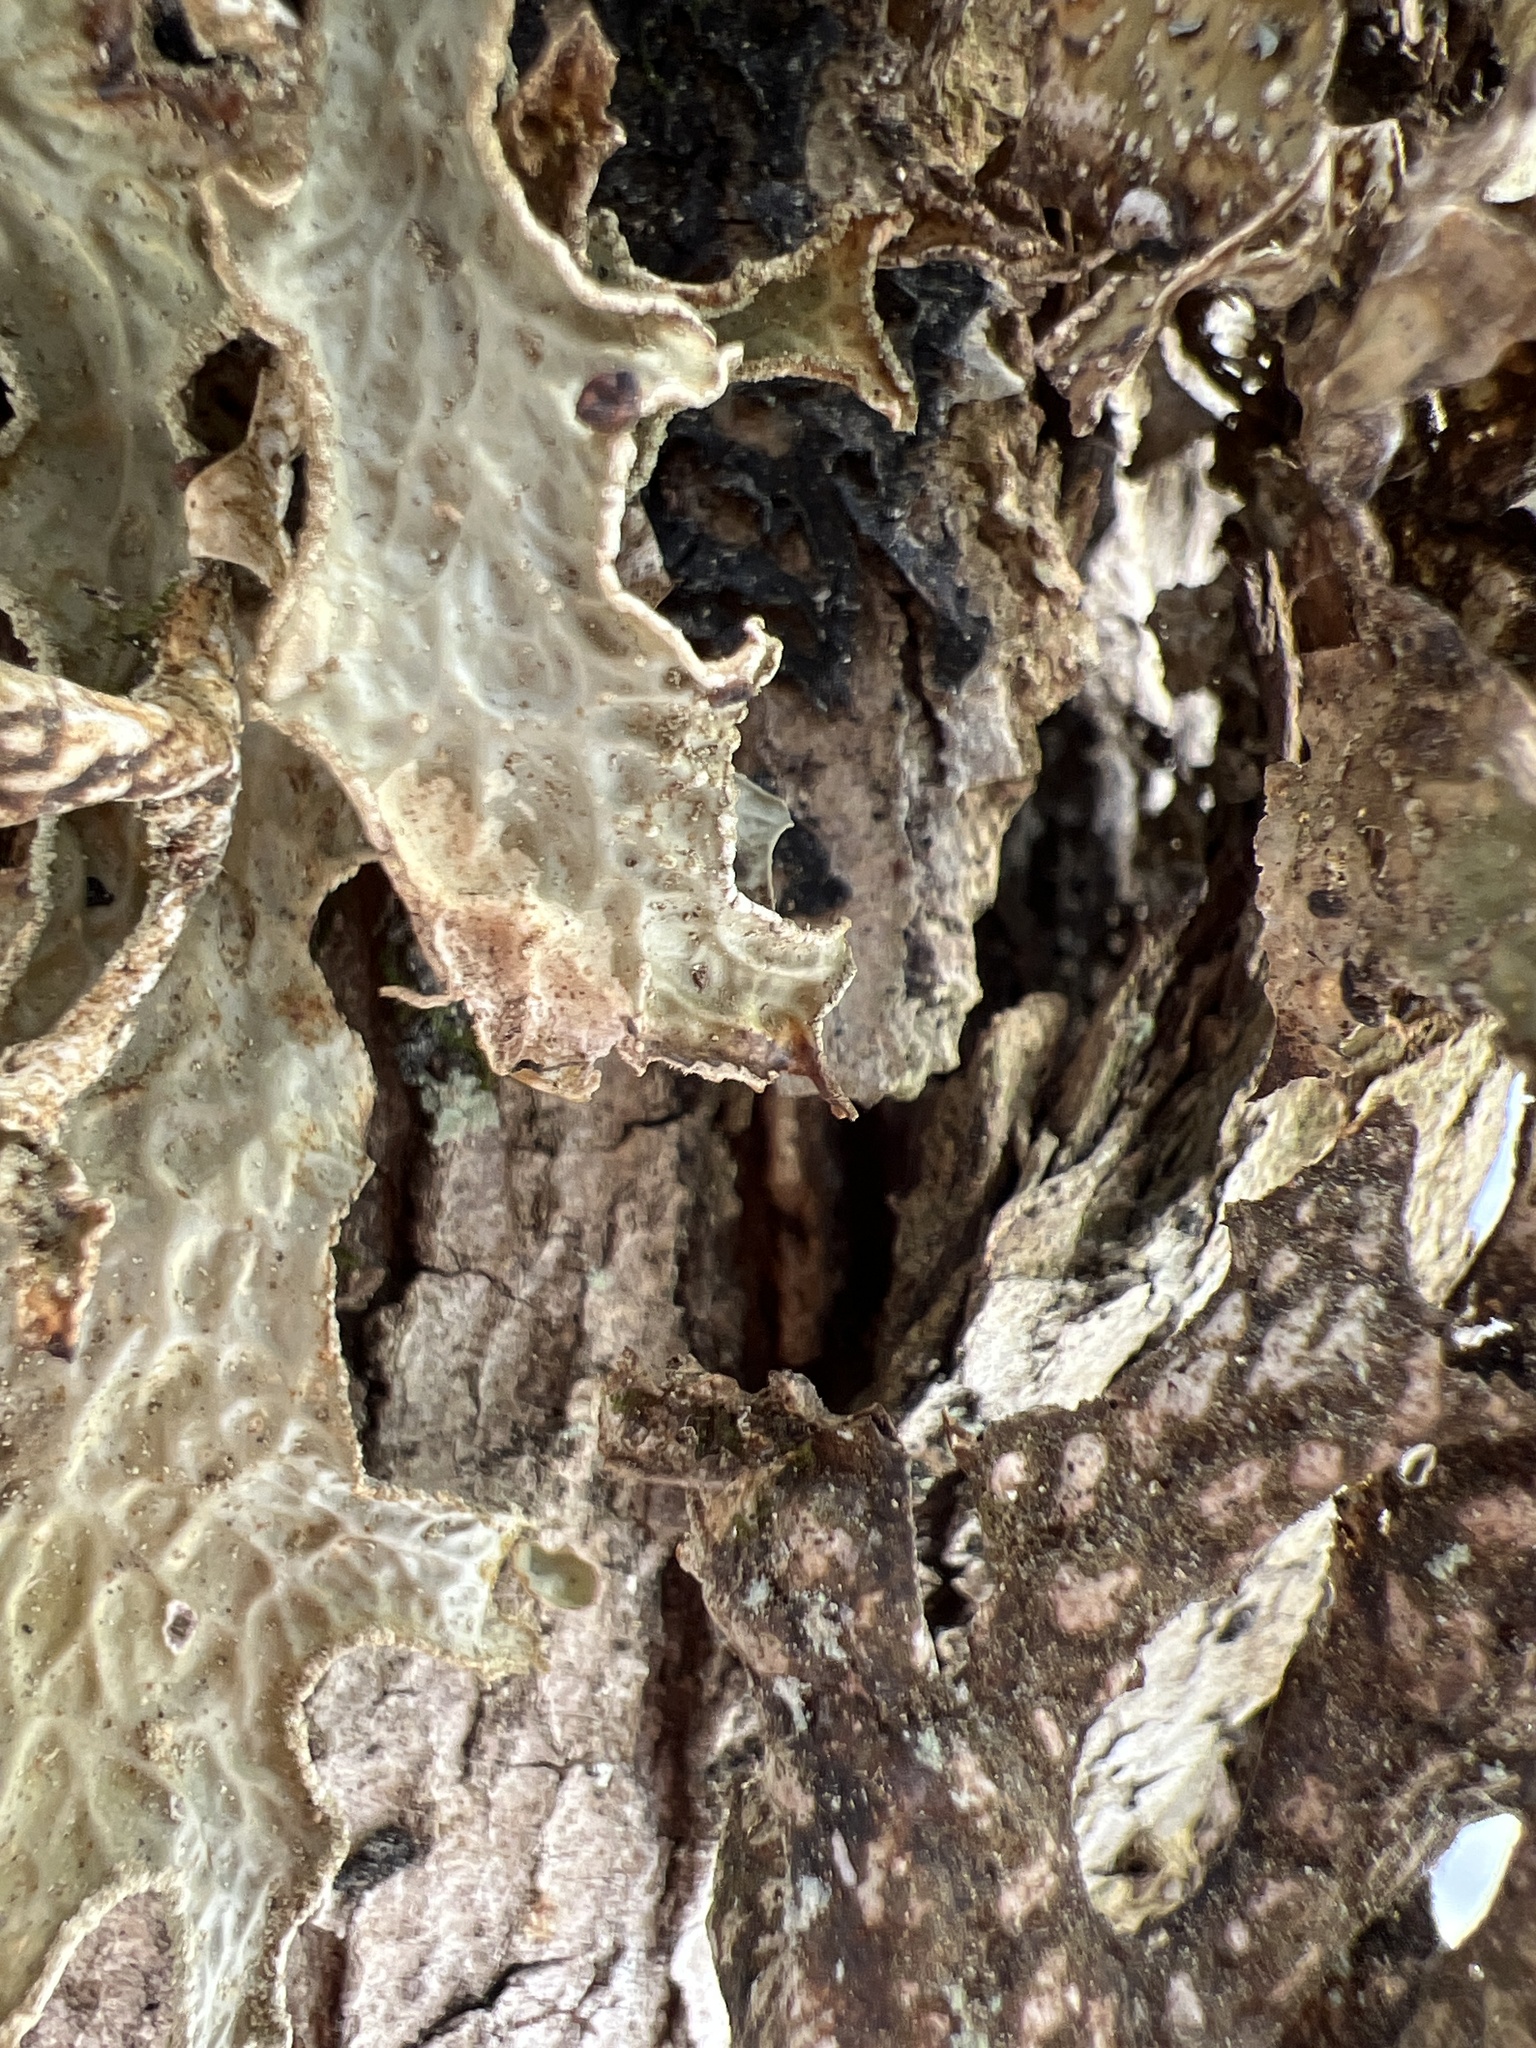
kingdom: Fungi
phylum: Ascomycota
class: Lecanoromycetes
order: Peltigerales
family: Lobariaceae
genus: Lobaria
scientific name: Lobaria pulmonaria
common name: Lungwort
